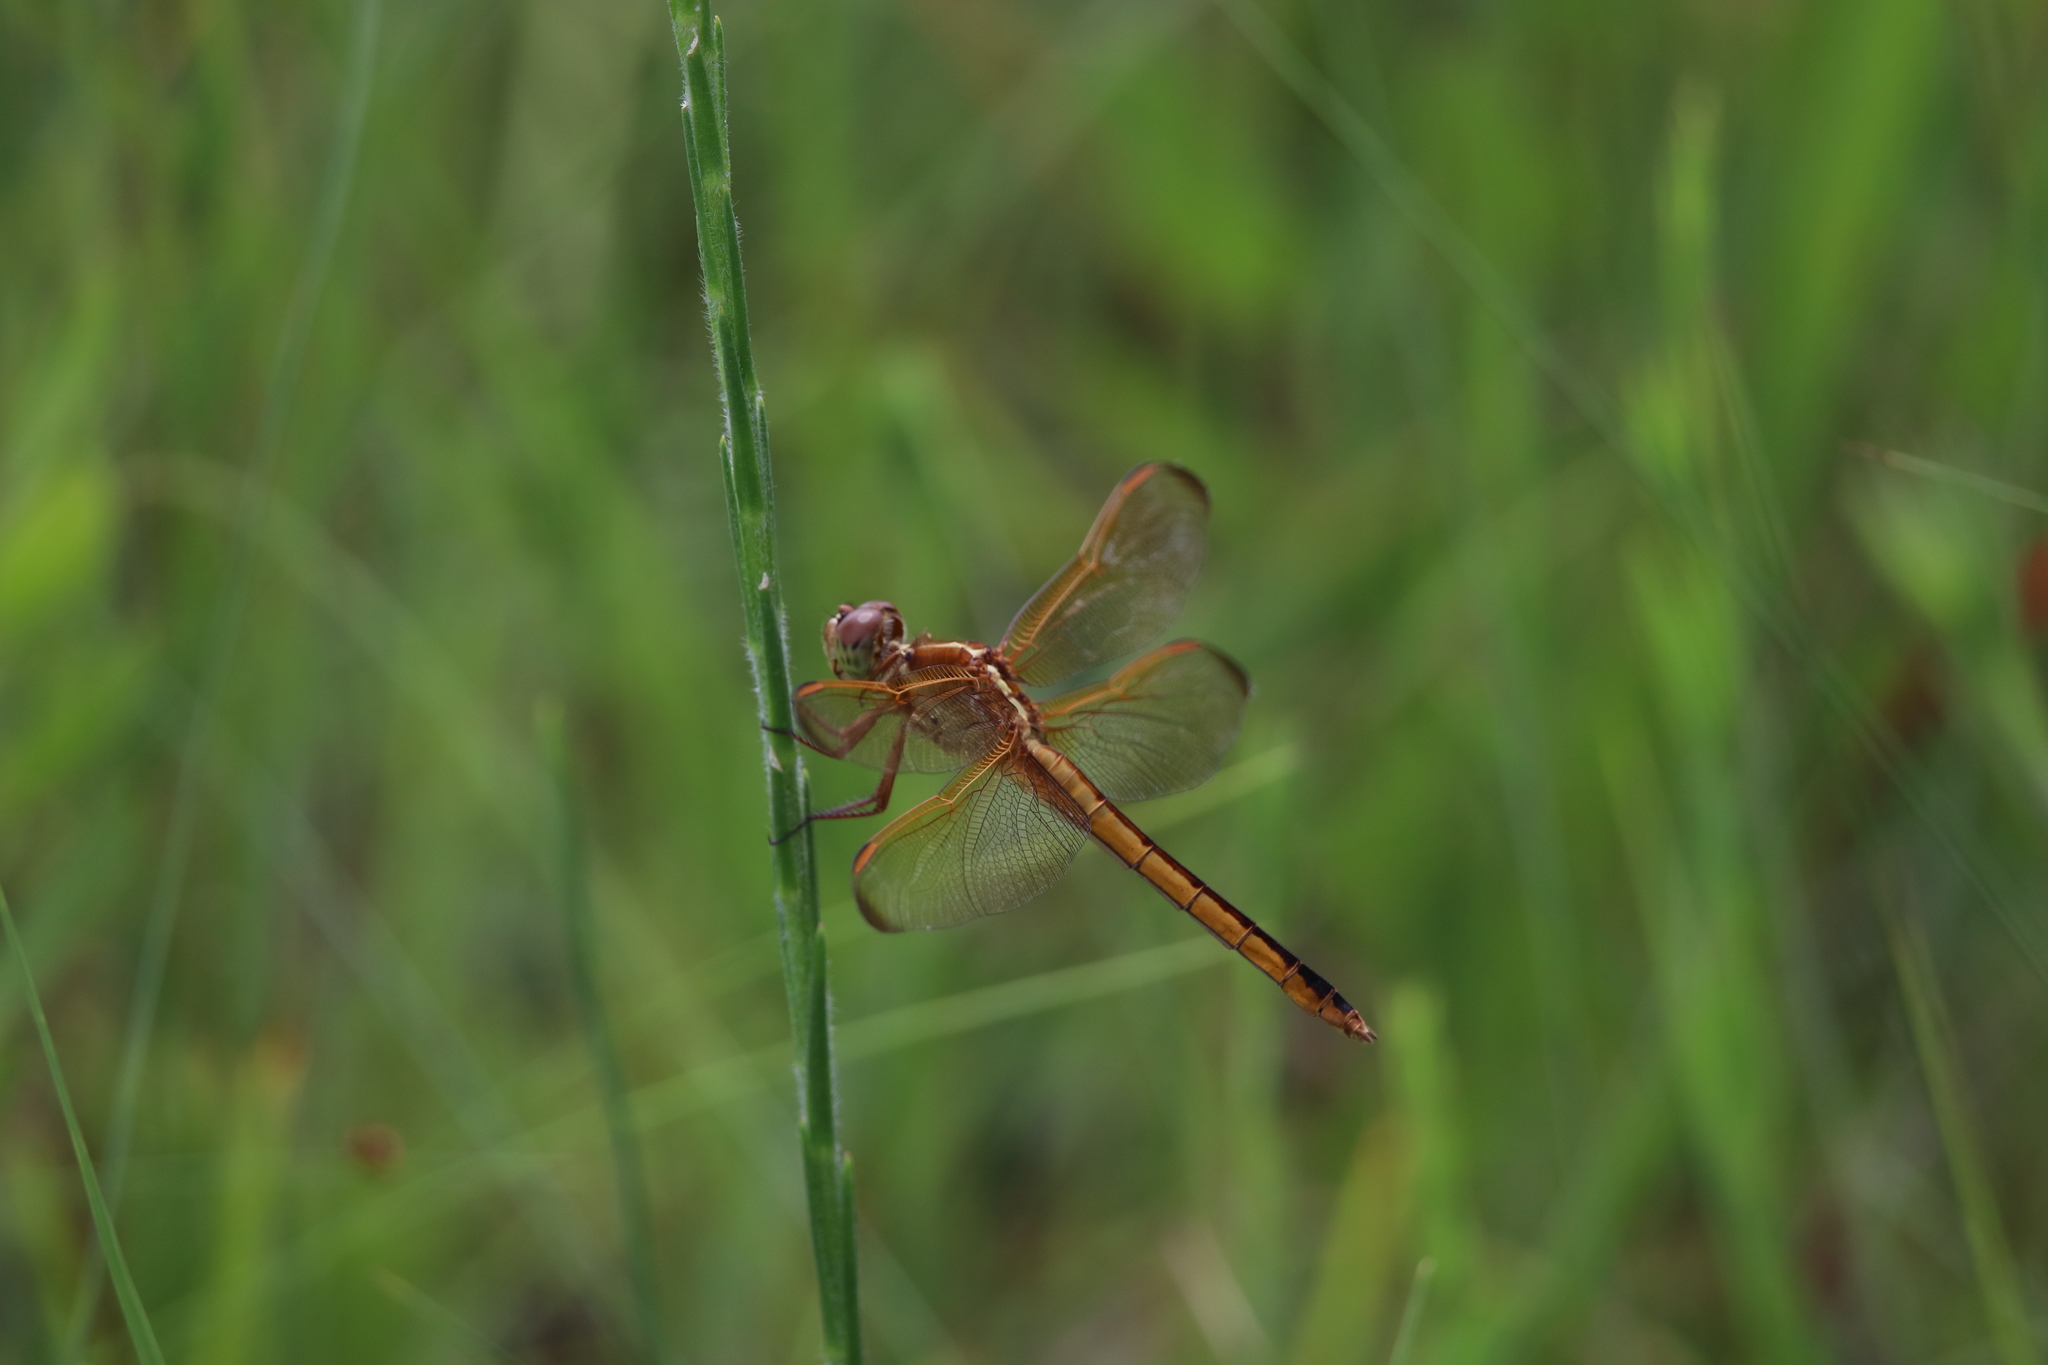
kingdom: Animalia
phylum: Arthropoda
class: Insecta
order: Odonata
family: Libellulidae
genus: Libellula
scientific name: Libellula needhami
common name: Needham's skimmer
